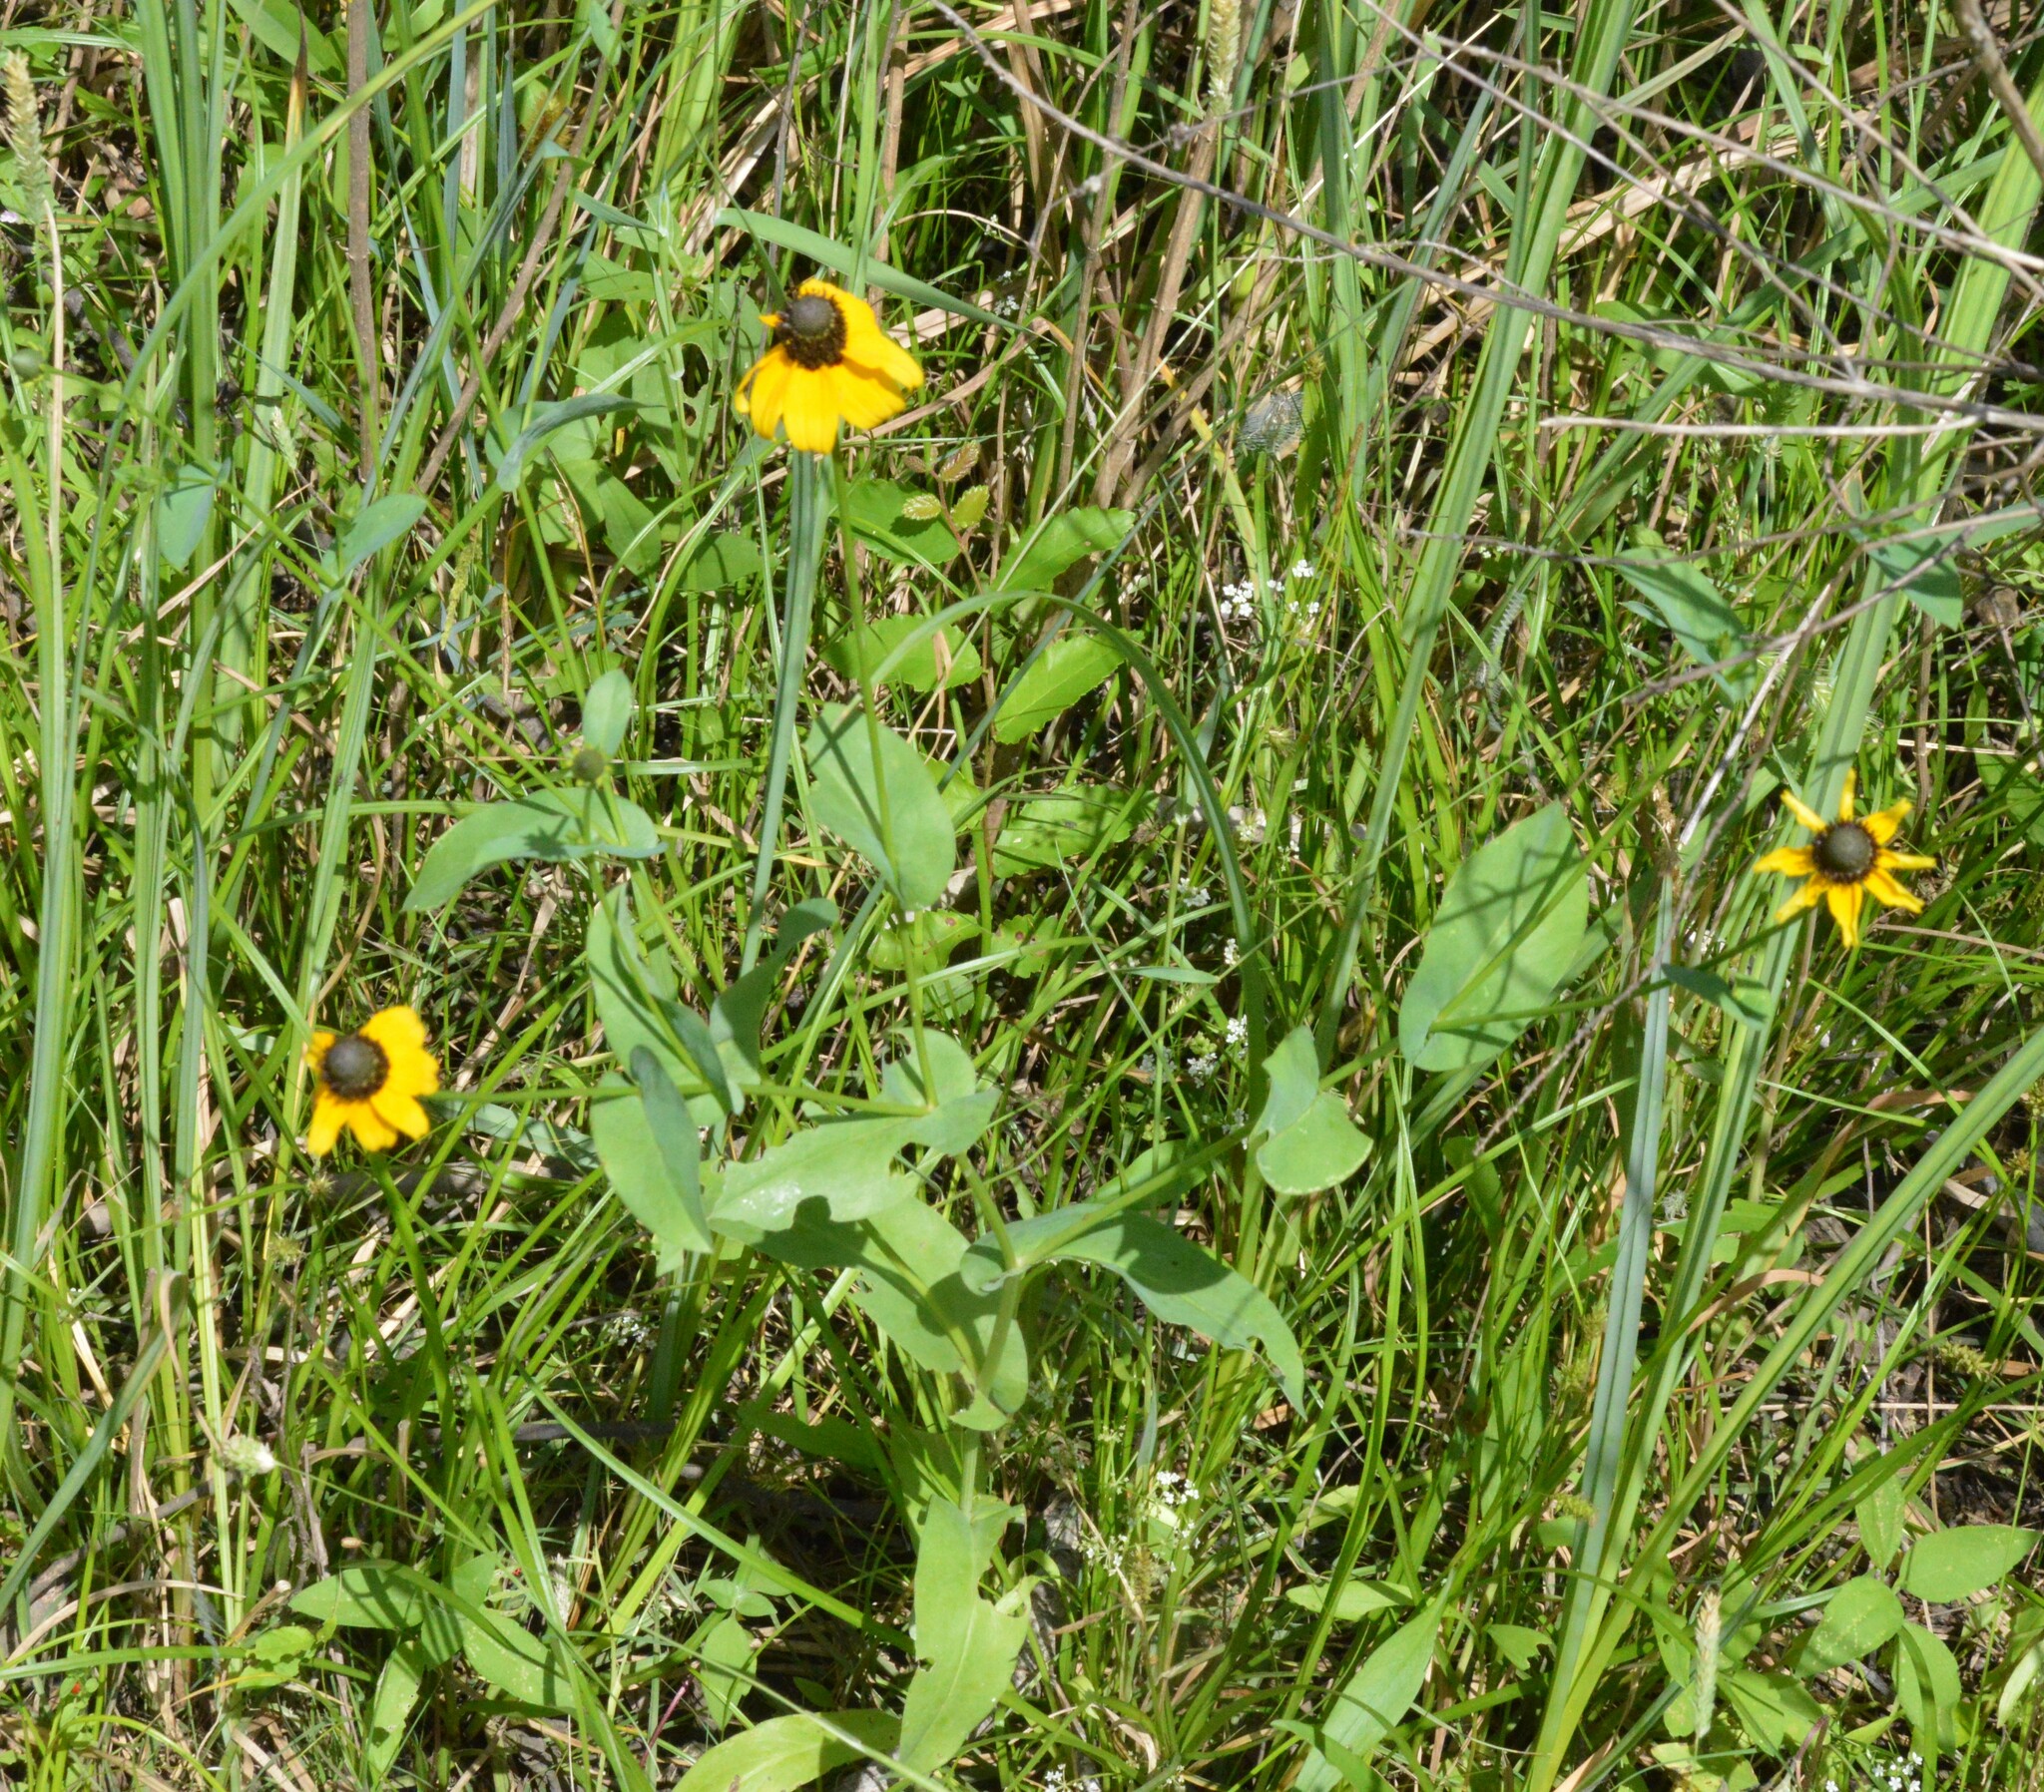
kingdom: Plantae
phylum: Tracheophyta
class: Magnoliopsida
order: Asterales
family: Asteraceae
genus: Rudbeckia
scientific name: Rudbeckia amplexicaulis
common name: Clasping-leaf coneflower
